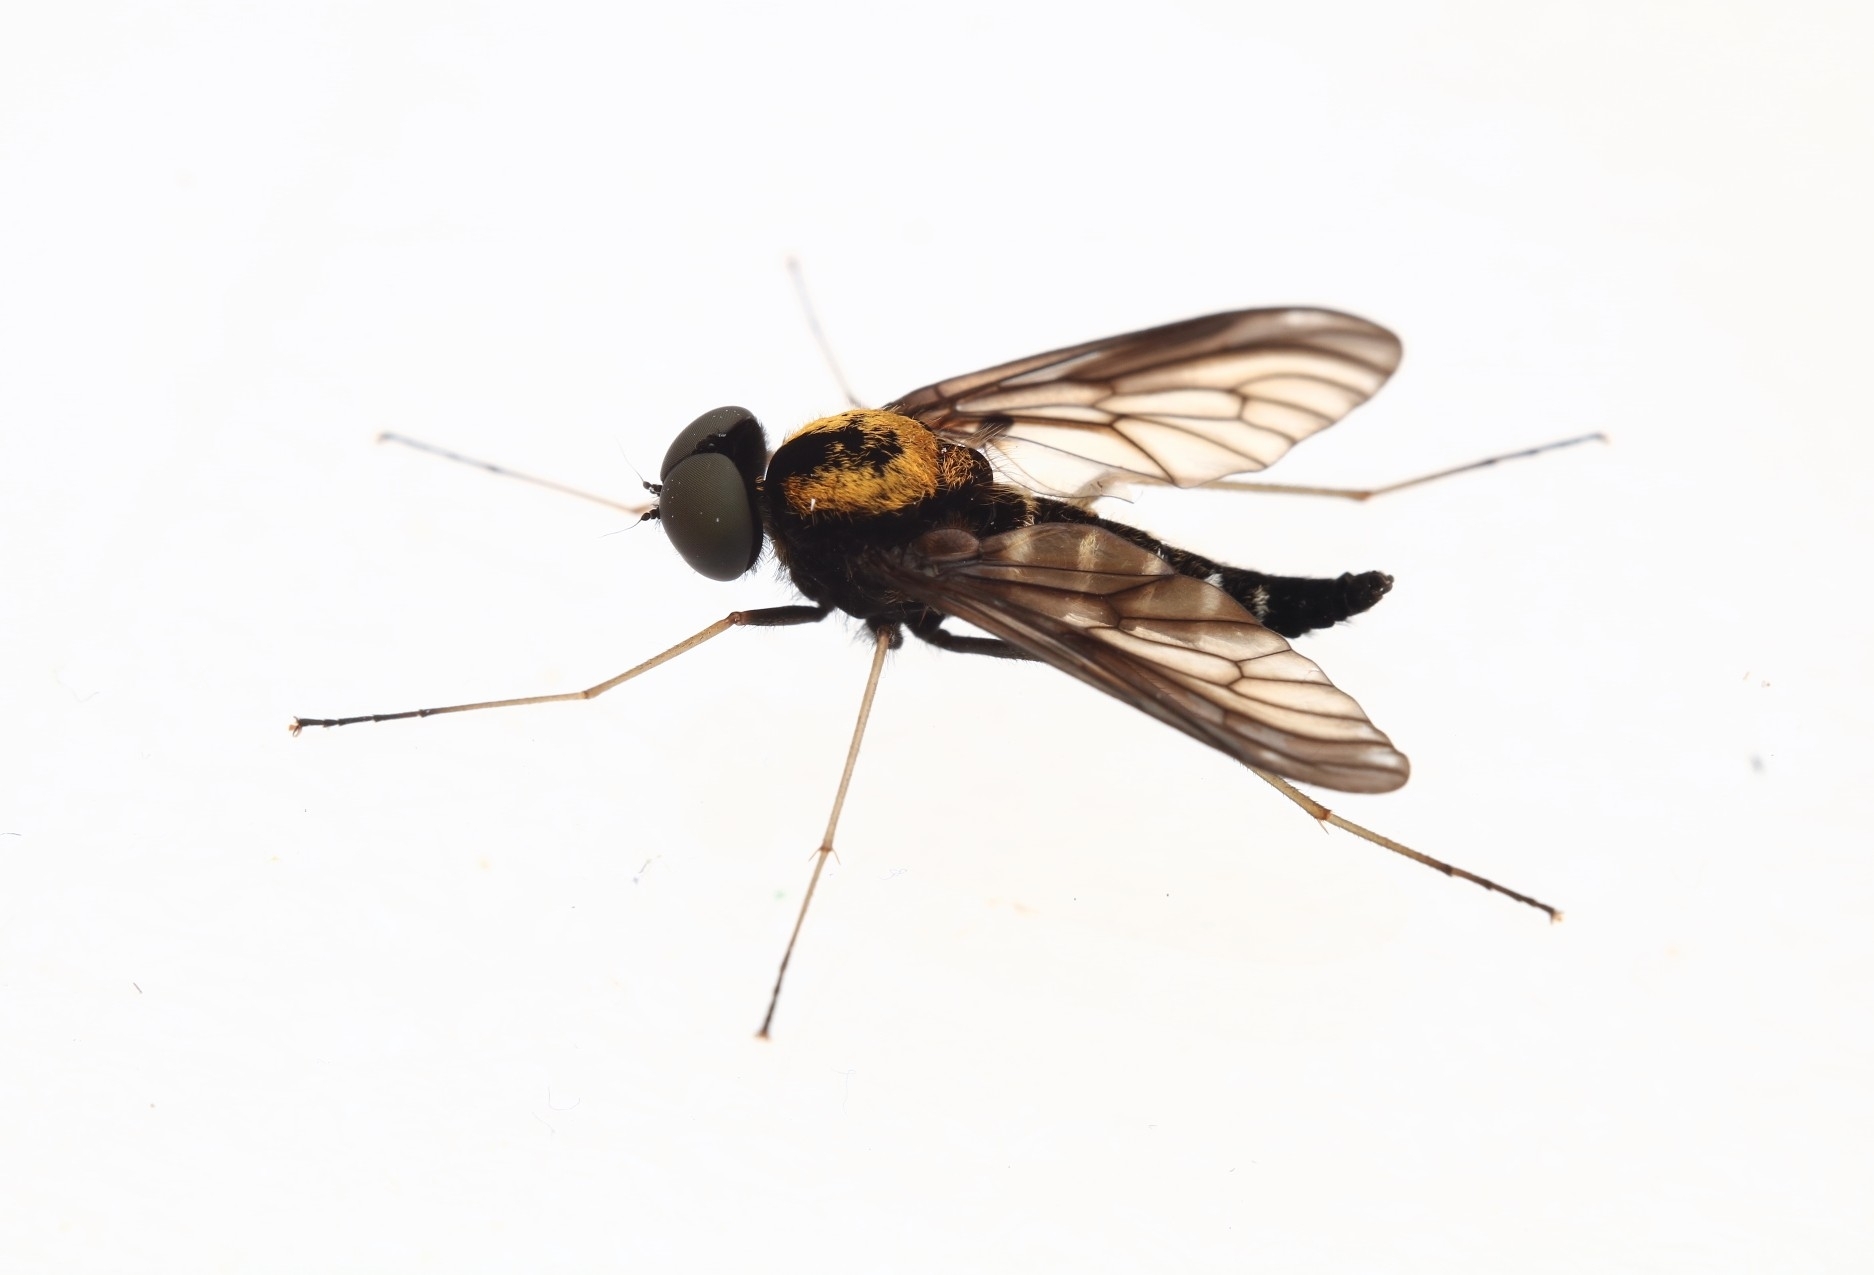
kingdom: Animalia
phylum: Arthropoda
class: Insecta
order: Diptera
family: Rhagionidae
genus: Chrysopilus
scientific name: Chrysopilus thoracicus
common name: Golden-backed snipe fly
